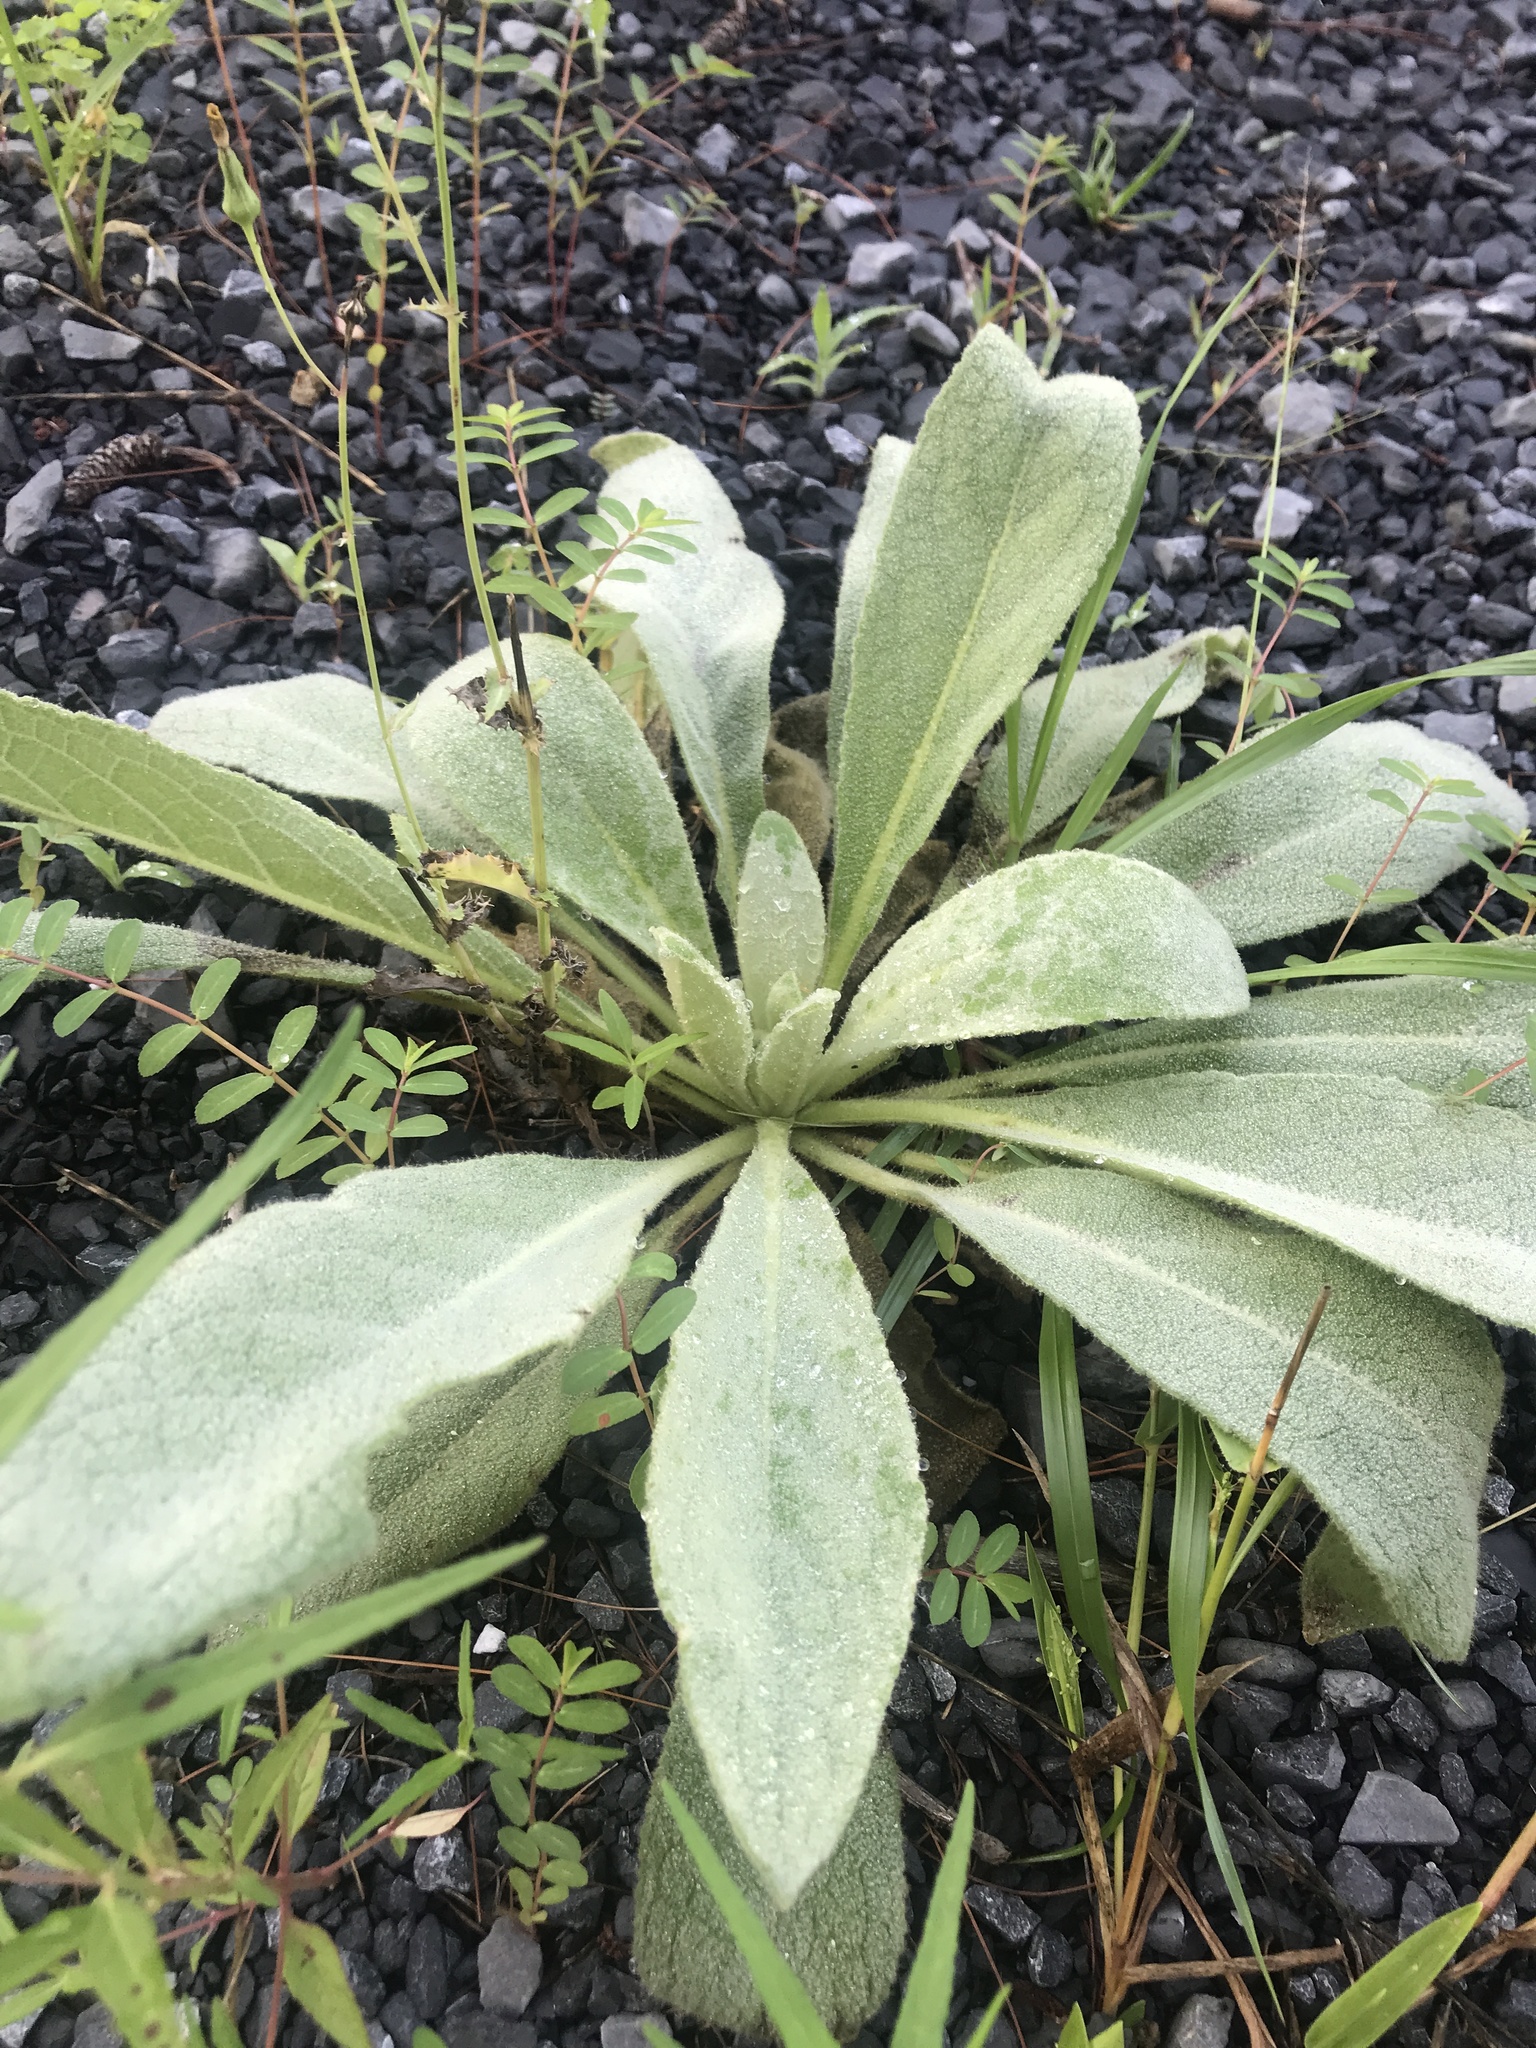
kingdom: Plantae
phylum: Tracheophyta
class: Magnoliopsida
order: Lamiales
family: Scrophulariaceae
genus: Verbascum
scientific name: Verbascum thapsus
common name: Common mullein
